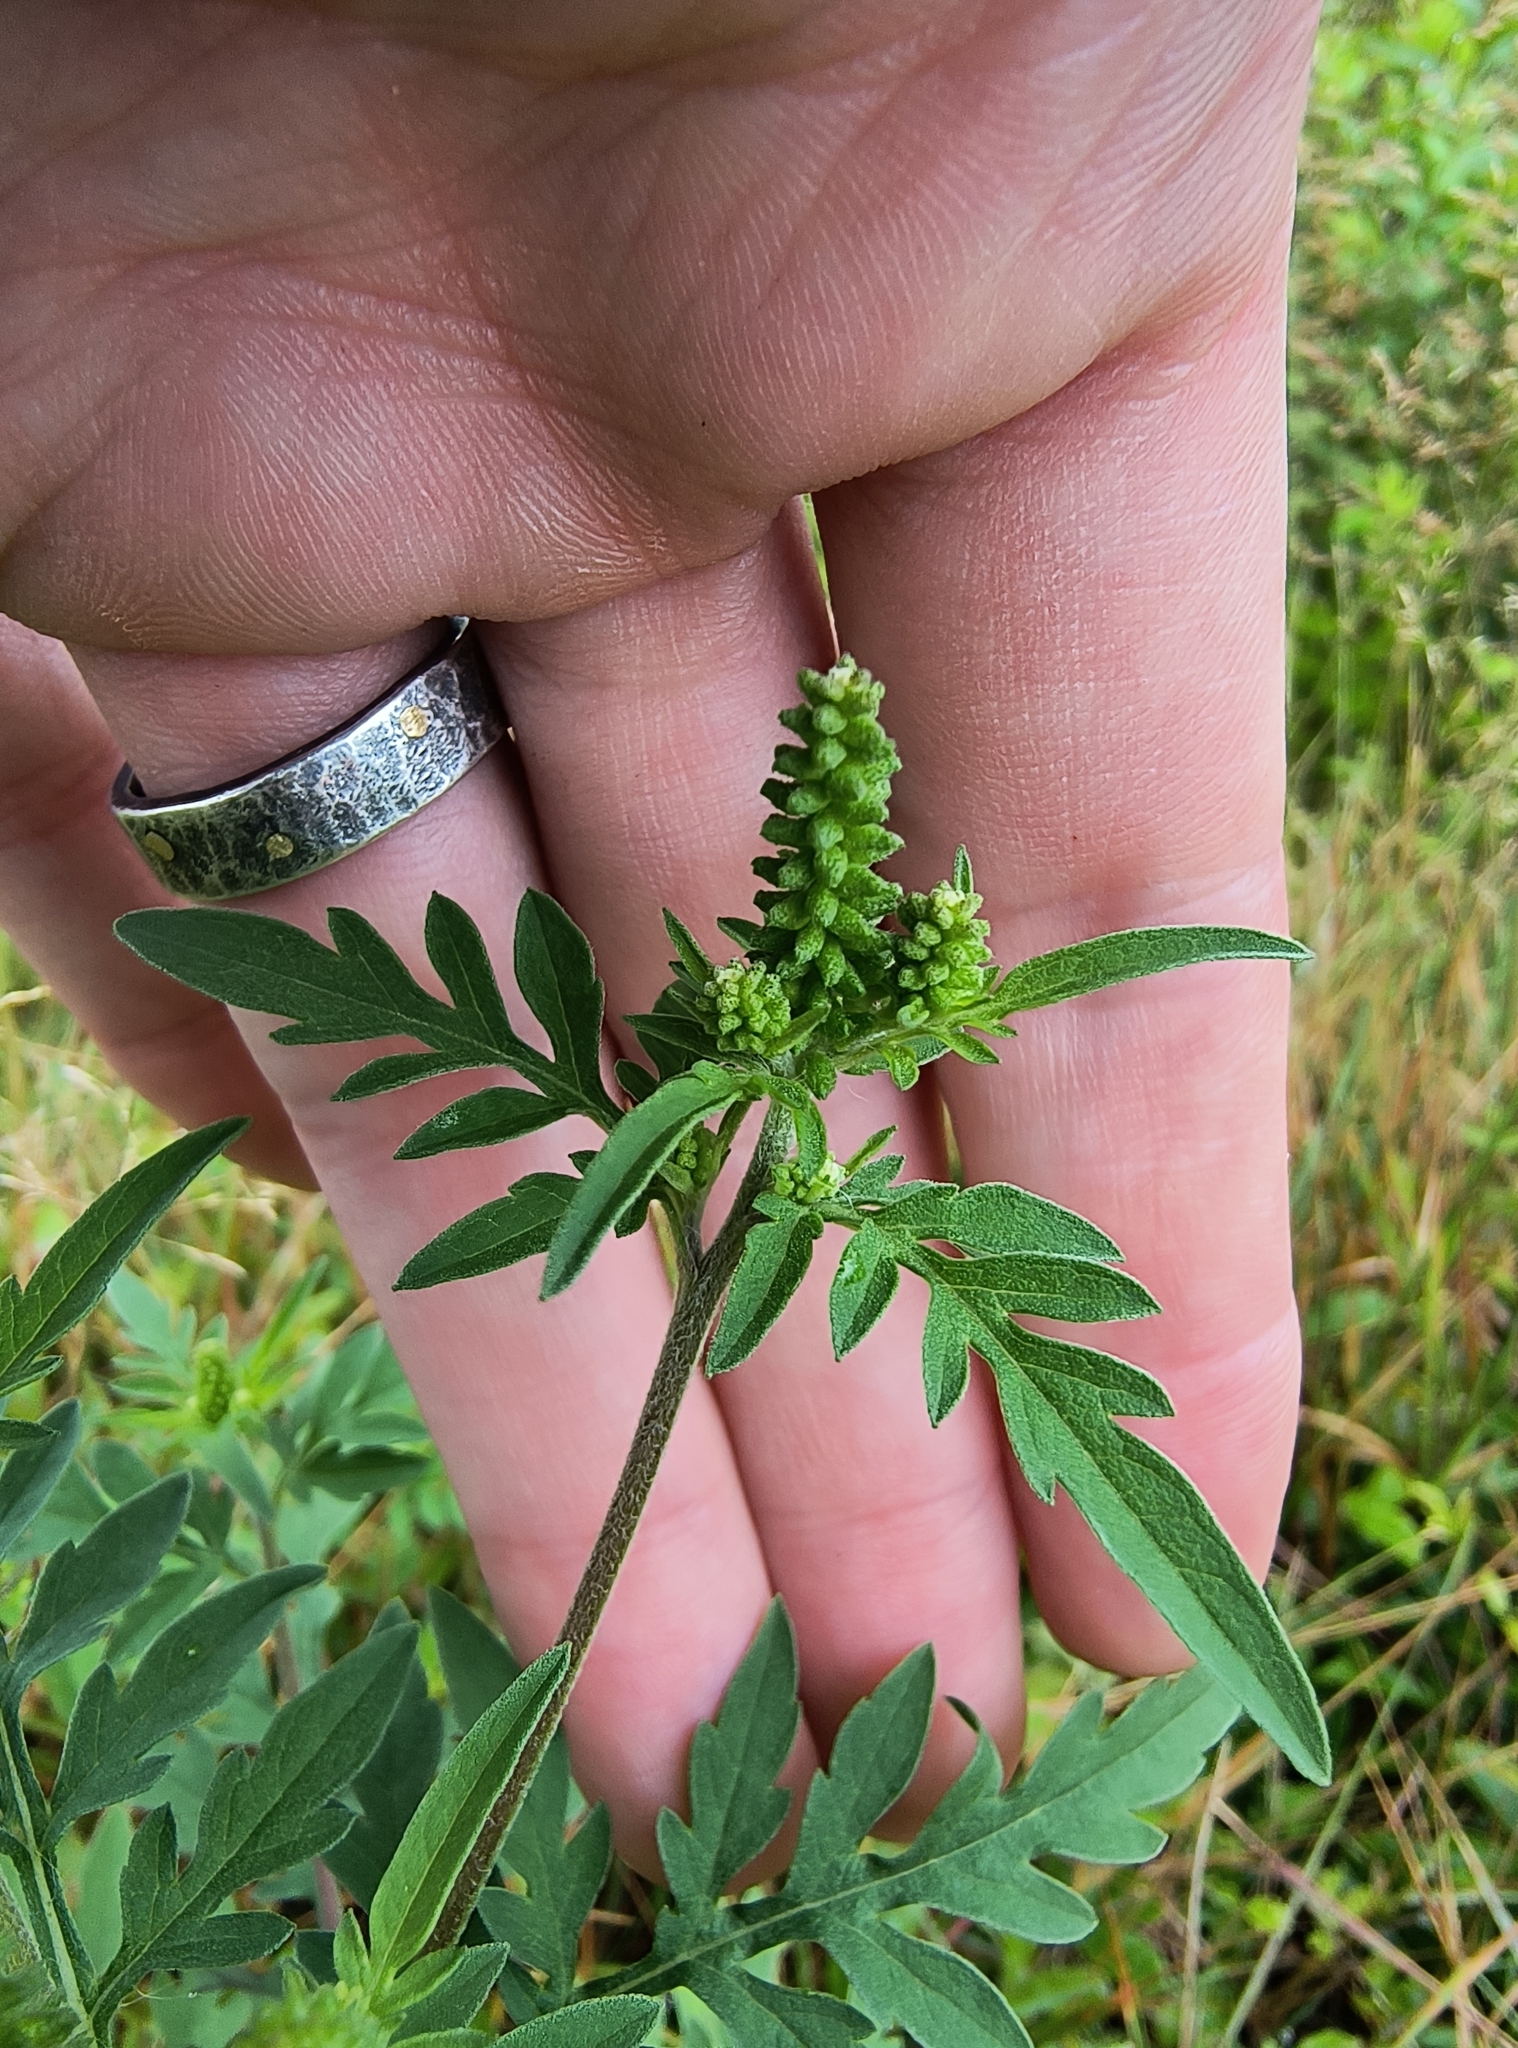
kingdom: Plantae
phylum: Tracheophyta
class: Magnoliopsida
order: Asterales
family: Asteraceae
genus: Ambrosia
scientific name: Ambrosia artemisiifolia
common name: Annual ragweed
